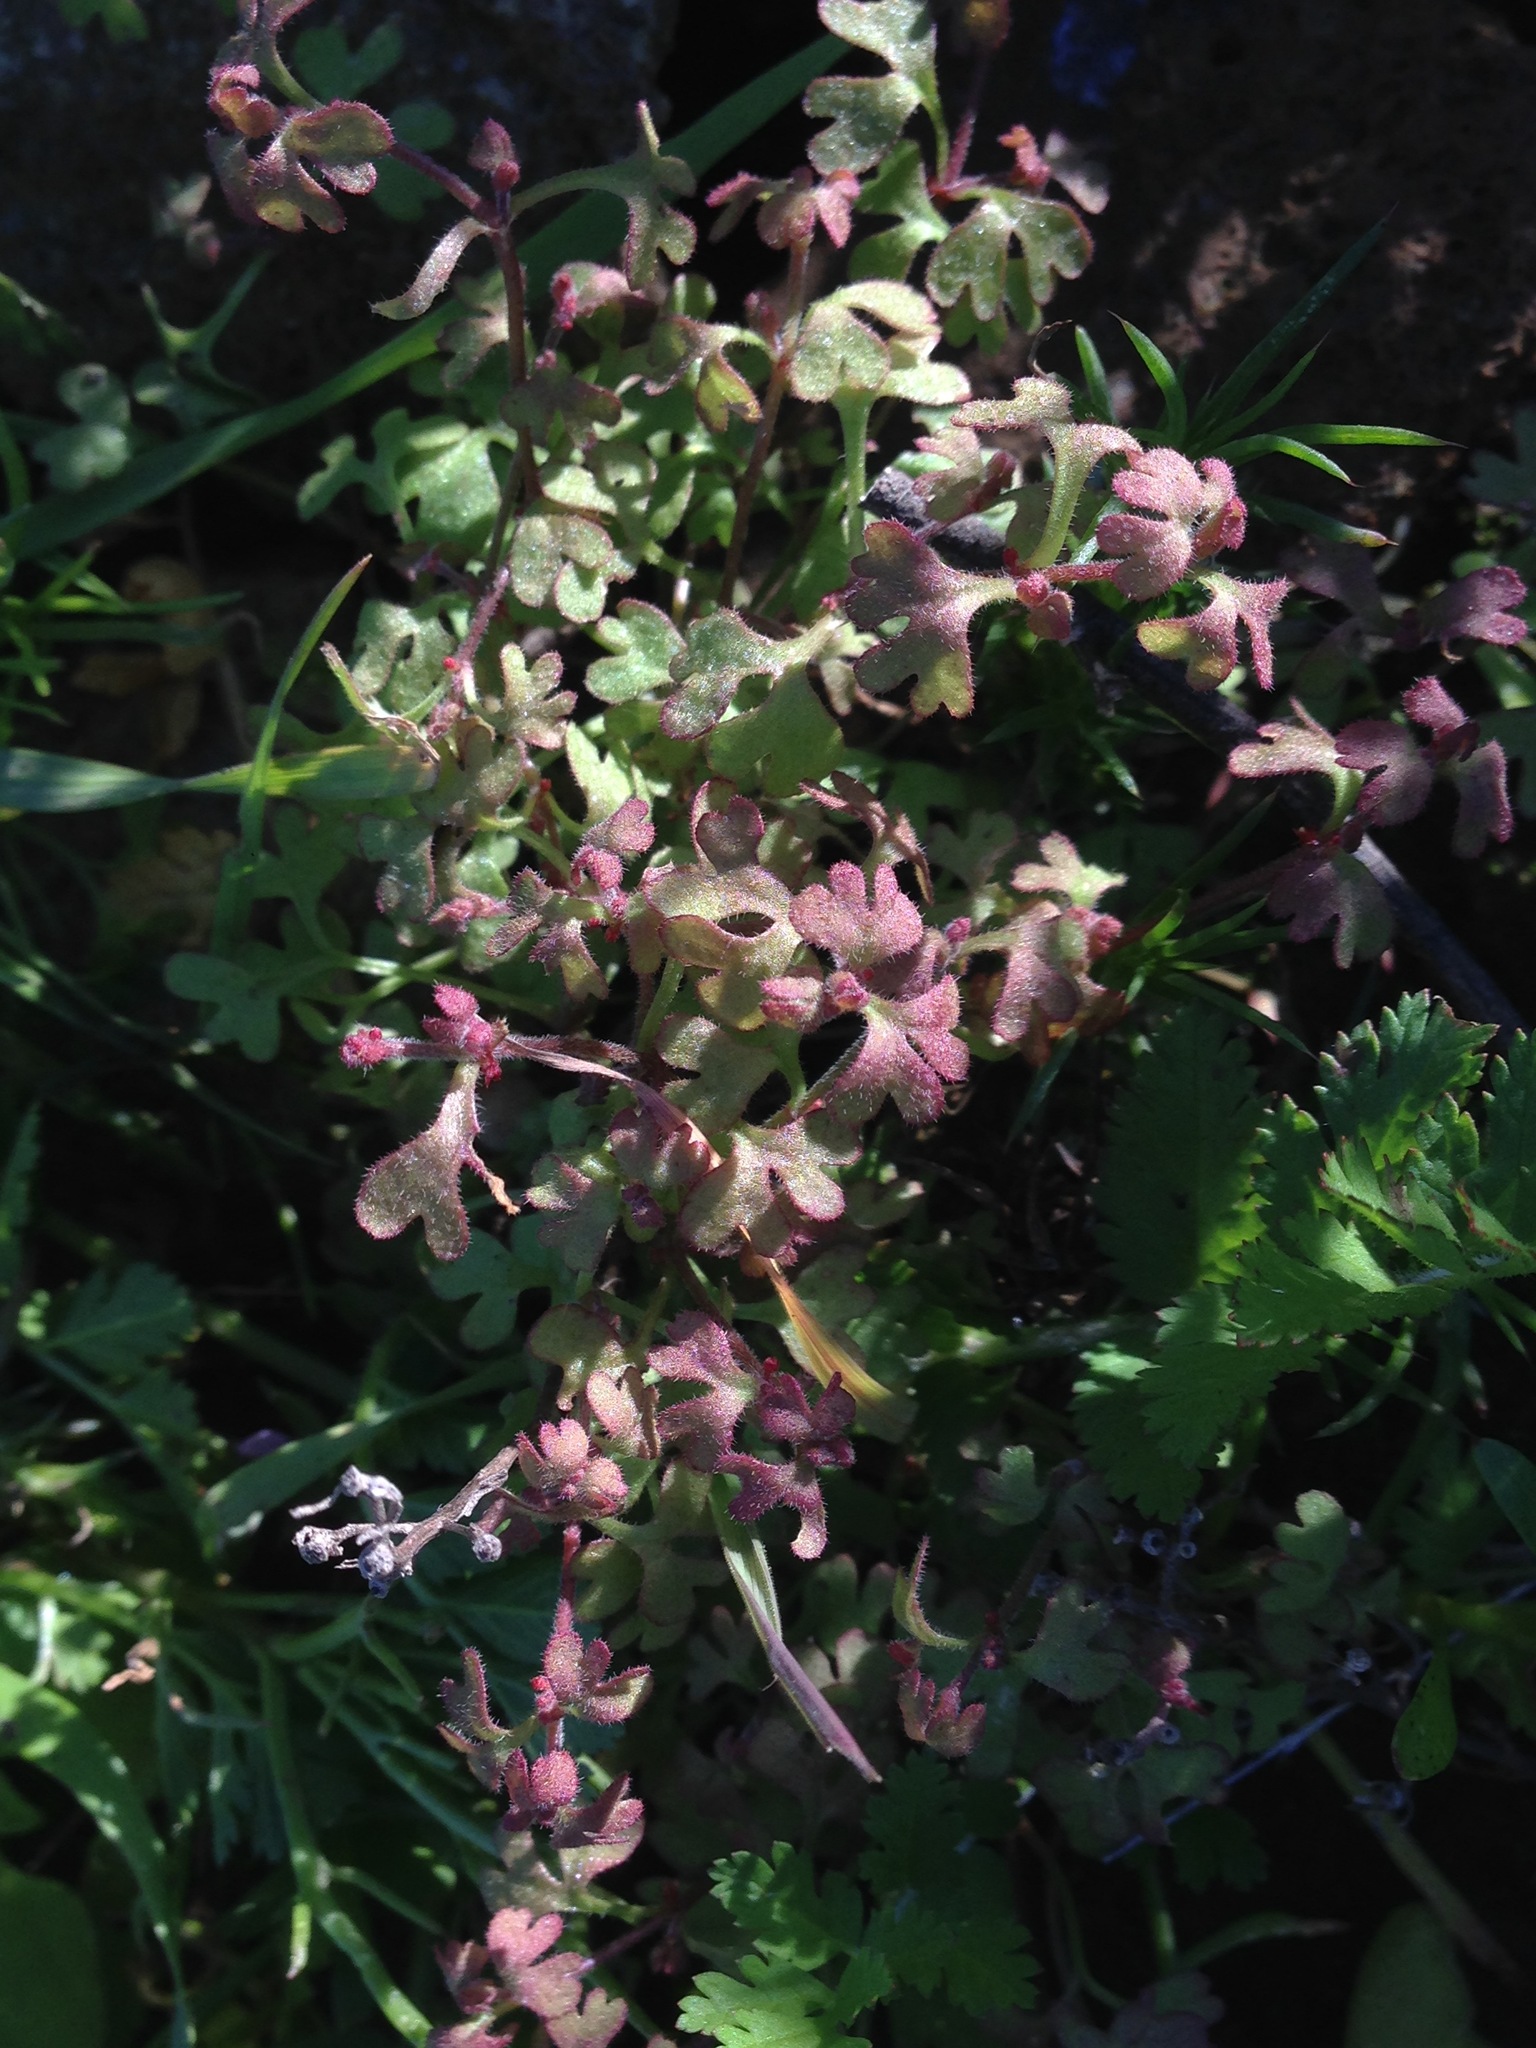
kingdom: Plantae
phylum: Tracheophyta
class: Magnoliopsida
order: Caryophyllales
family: Polygonaceae
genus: Pterostegia
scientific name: Pterostegia drymarioides
